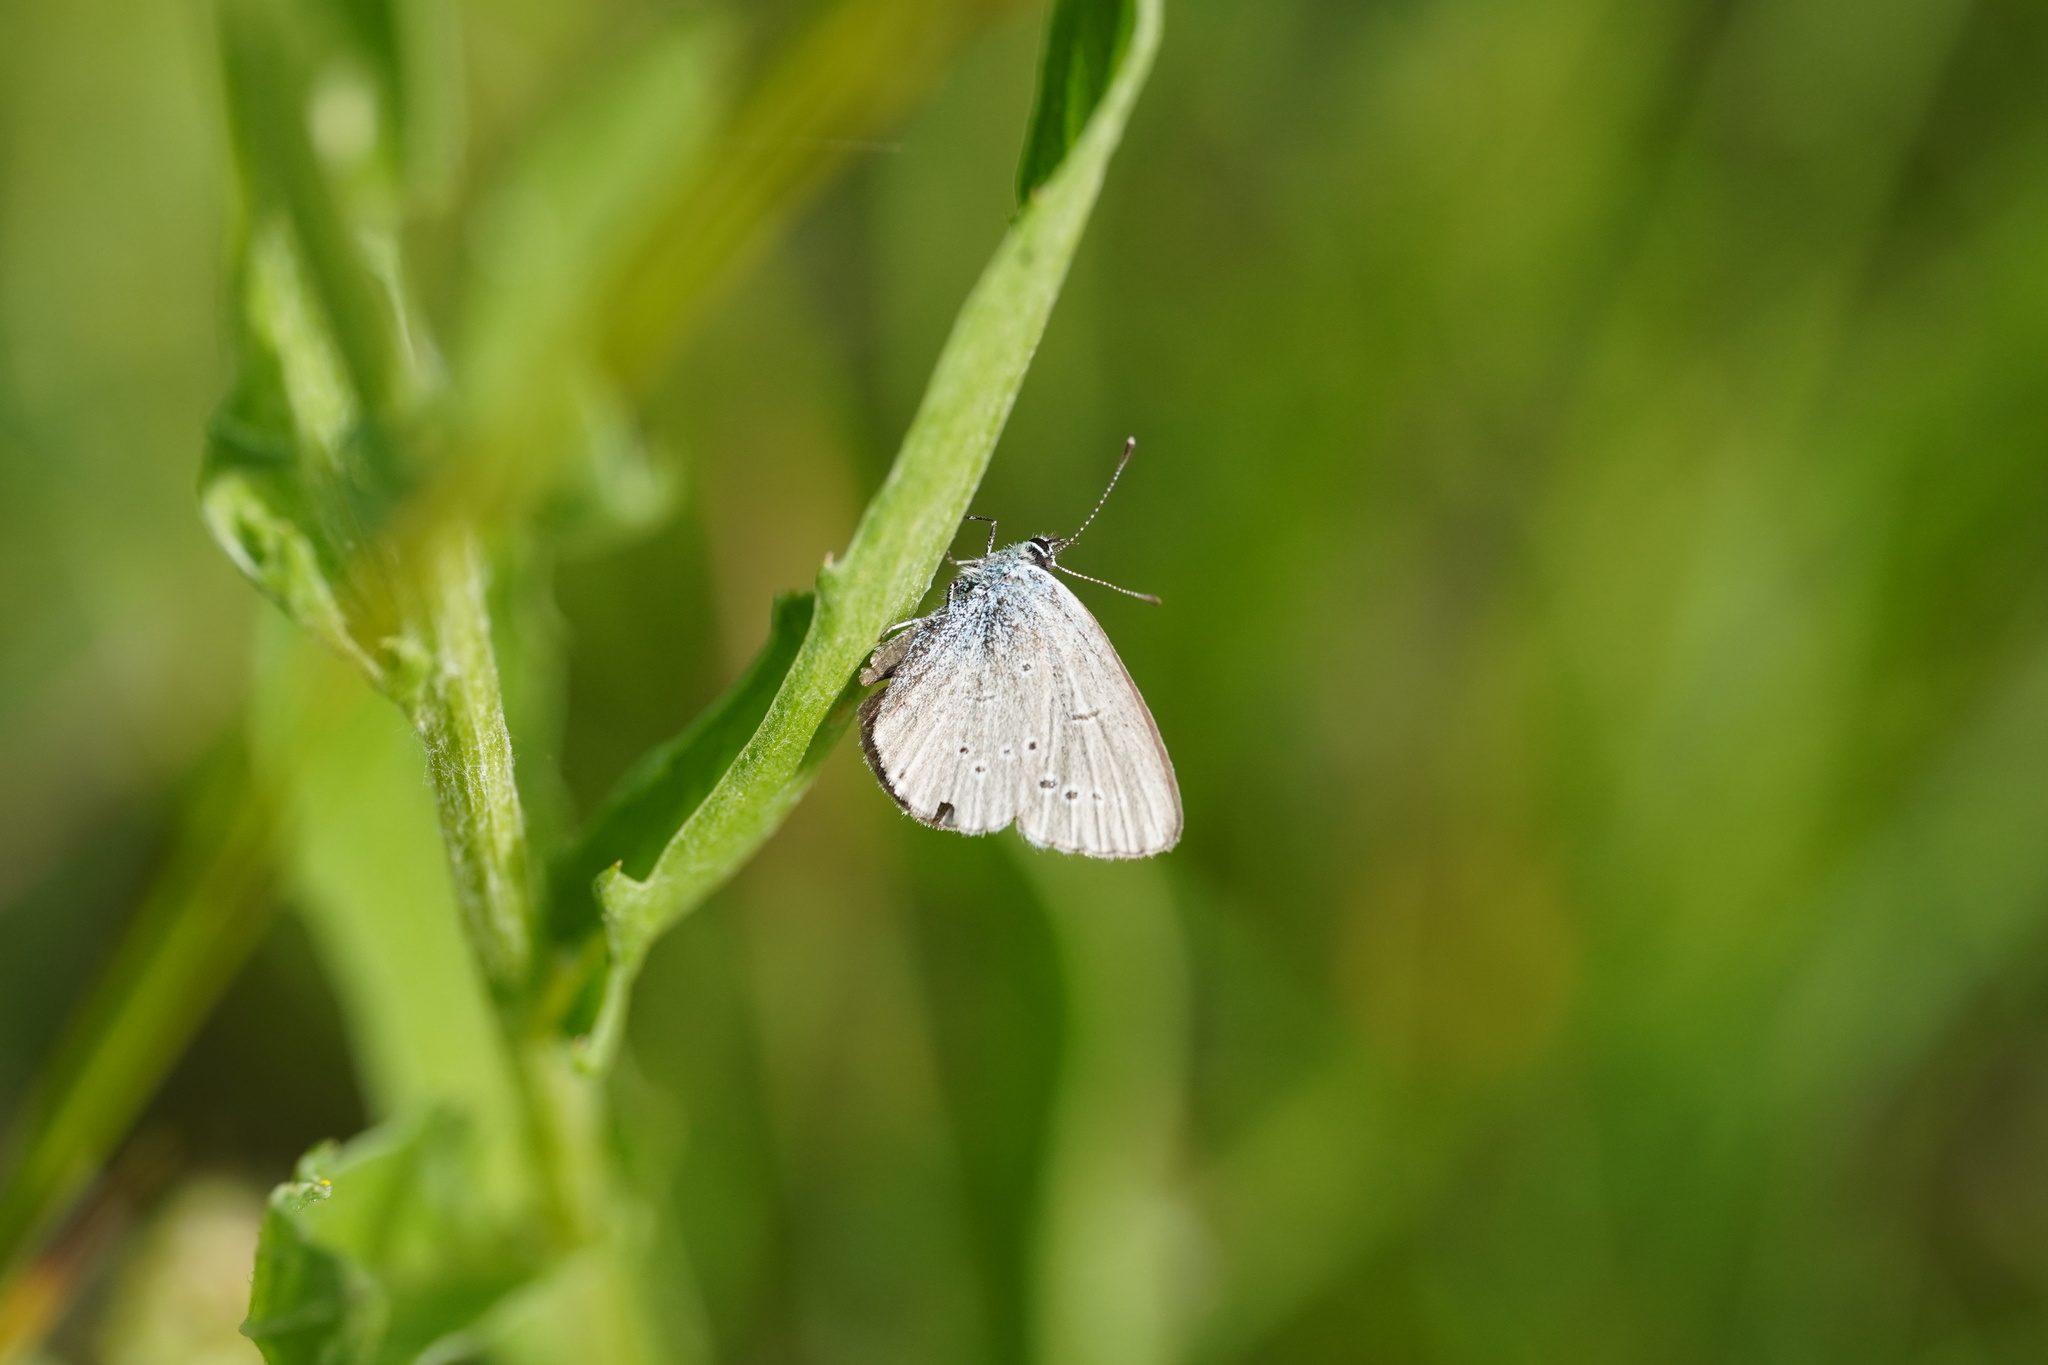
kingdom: Animalia
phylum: Arthropoda
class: Insecta
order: Lepidoptera
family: Lycaenidae
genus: Cupido
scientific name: Cupido minimus
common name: Small blue
